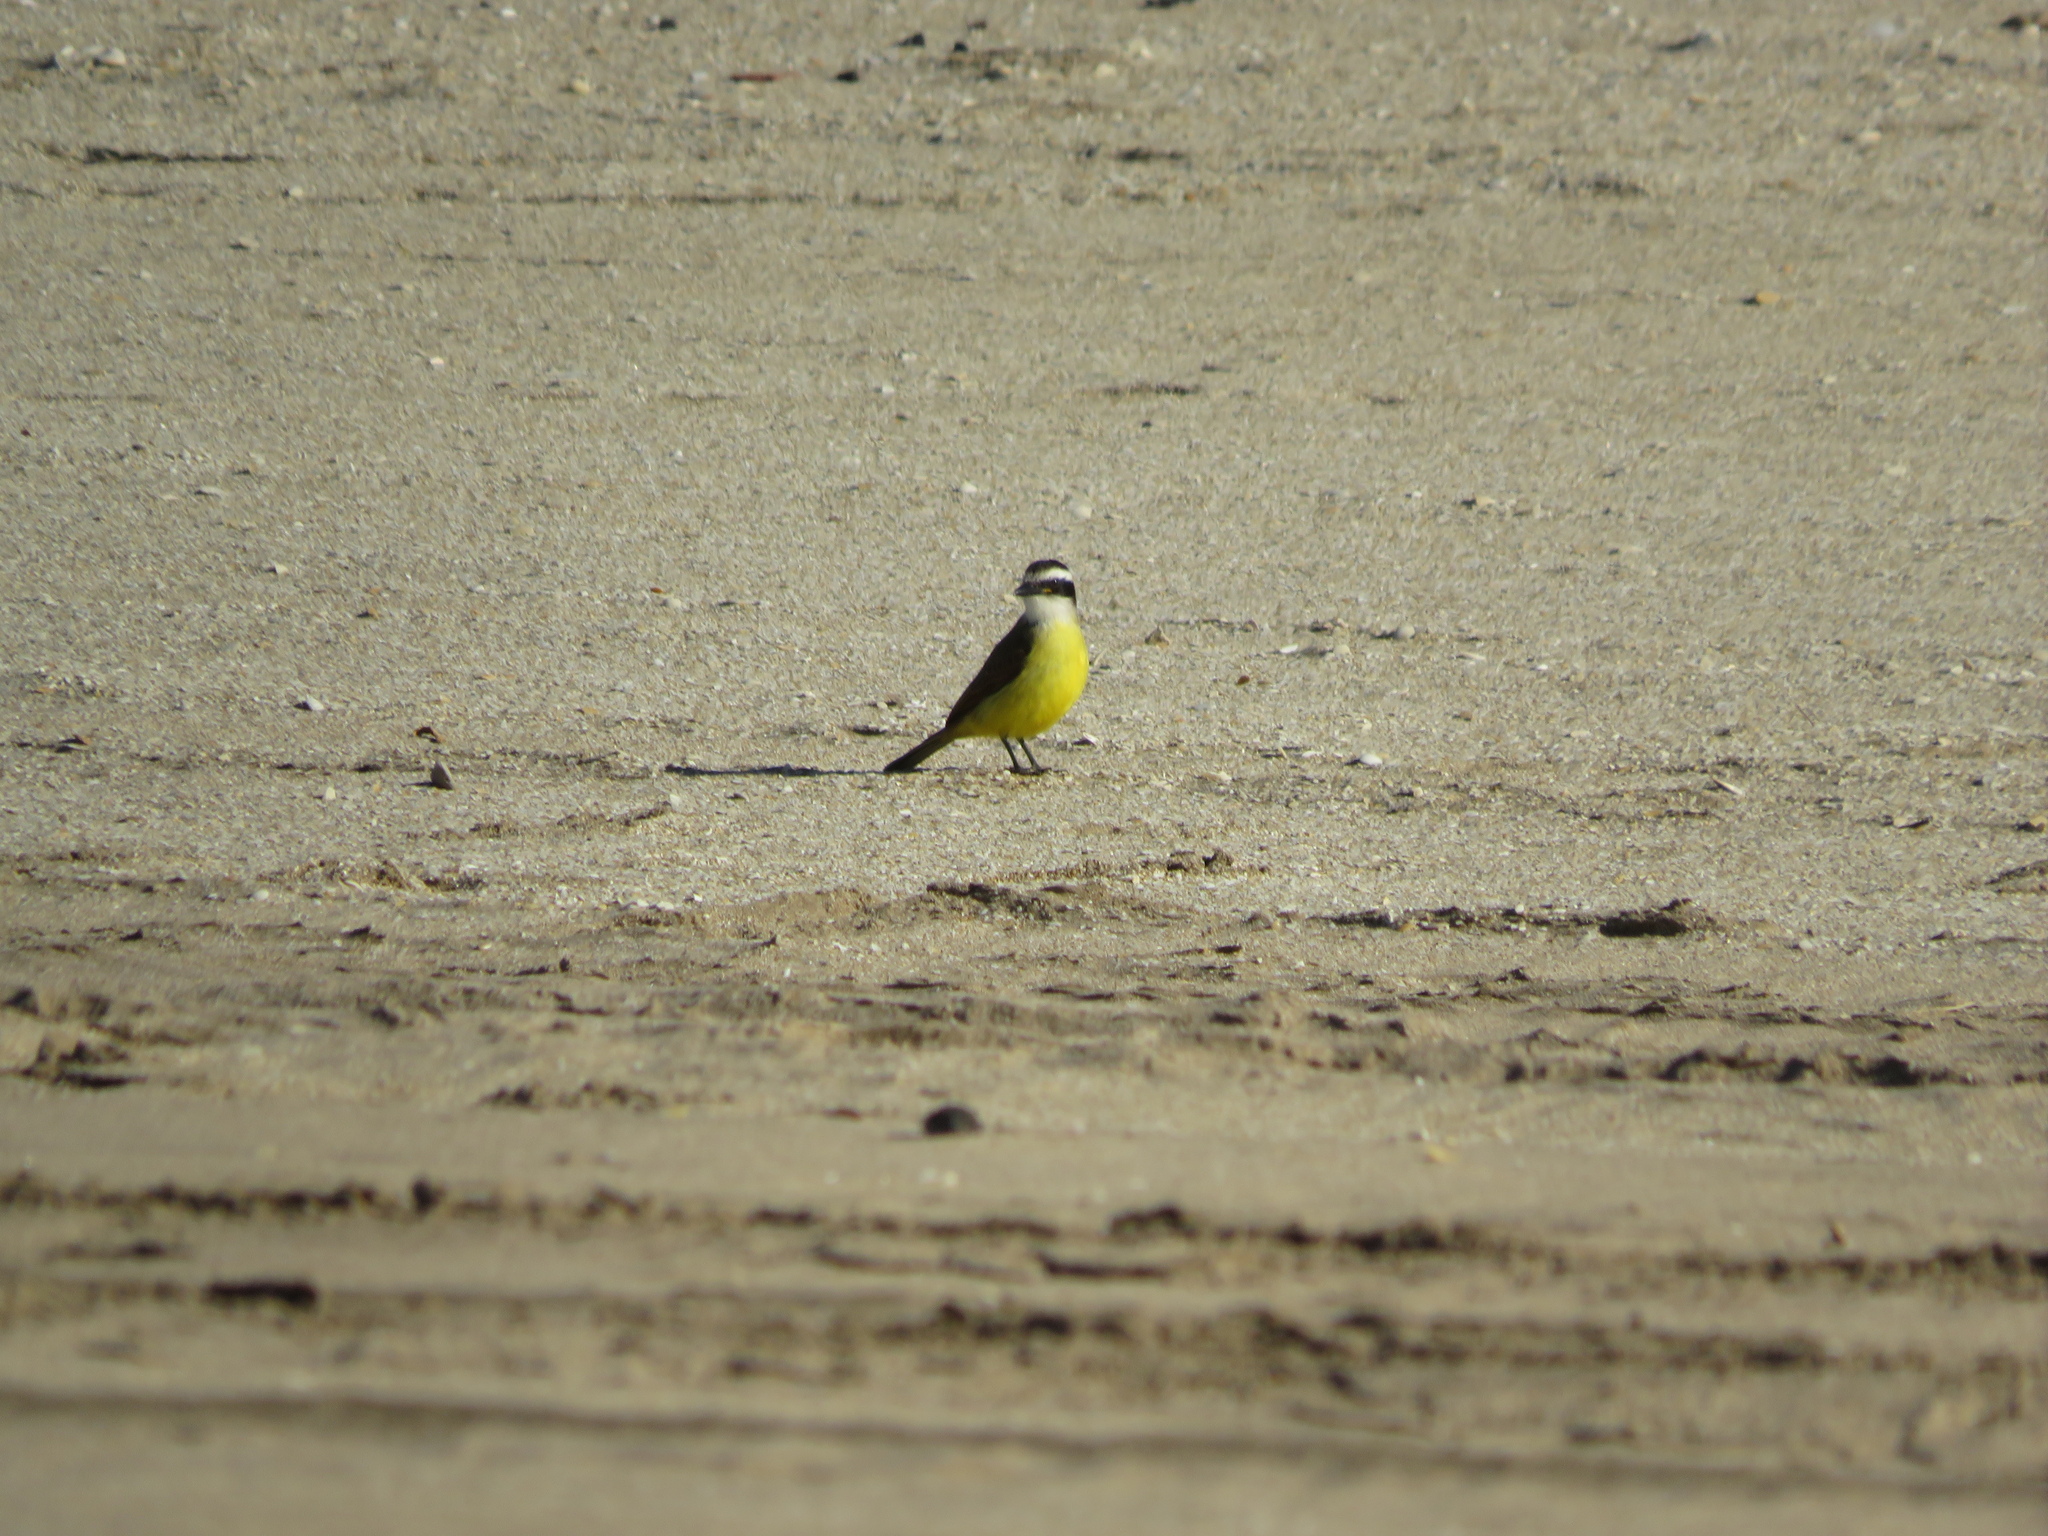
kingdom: Animalia
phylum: Chordata
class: Aves
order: Passeriformes
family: Tyrannidae
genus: Pitangus
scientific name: Pitangus sulphuratus
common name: Great kiskadee
